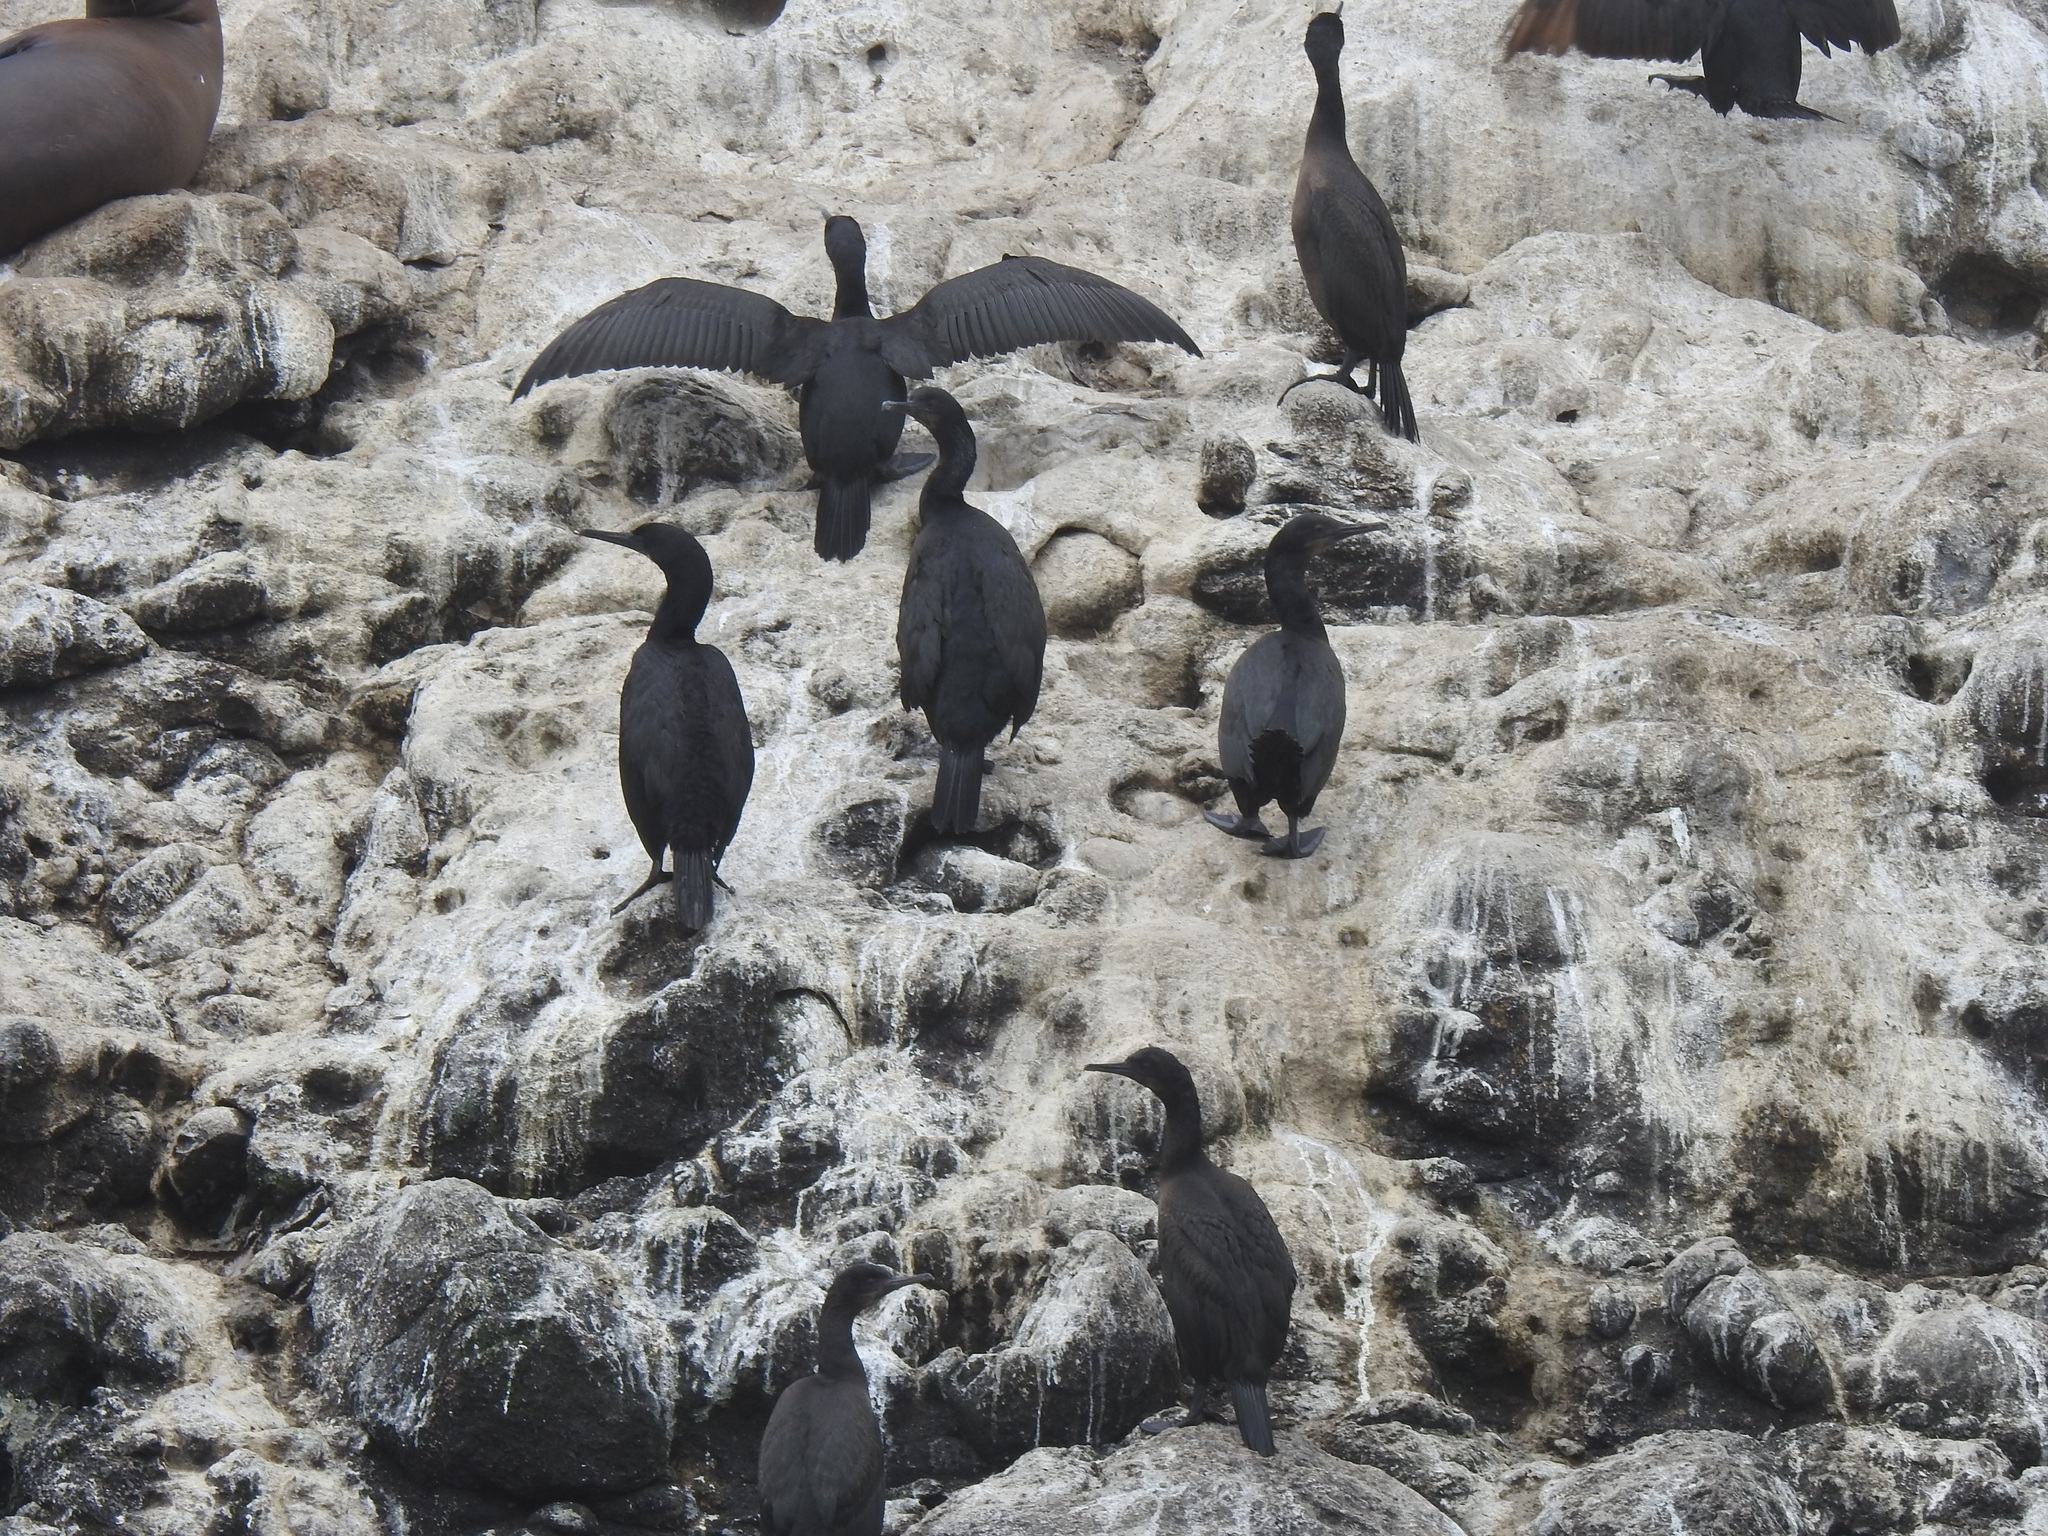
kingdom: Animalia
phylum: Chordata
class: Aves
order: Suliformes
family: Phalacrocoracidae
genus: Urile
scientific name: Urile penicillatus
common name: Brandt's cormorant
